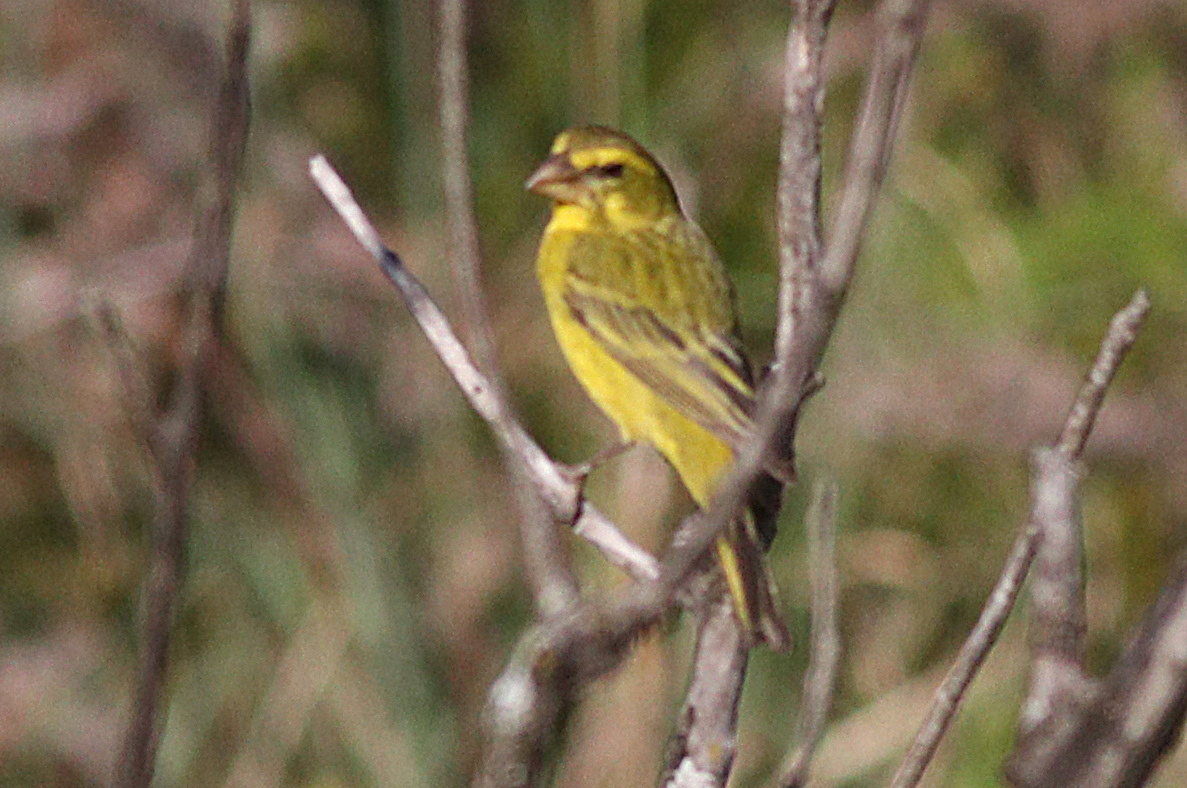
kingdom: Animalia
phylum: Chordata
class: Aves
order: Passeriformes
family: Fringillidae
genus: Crithagra
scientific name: Crithagra sulphurata
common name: Brimstone canary
